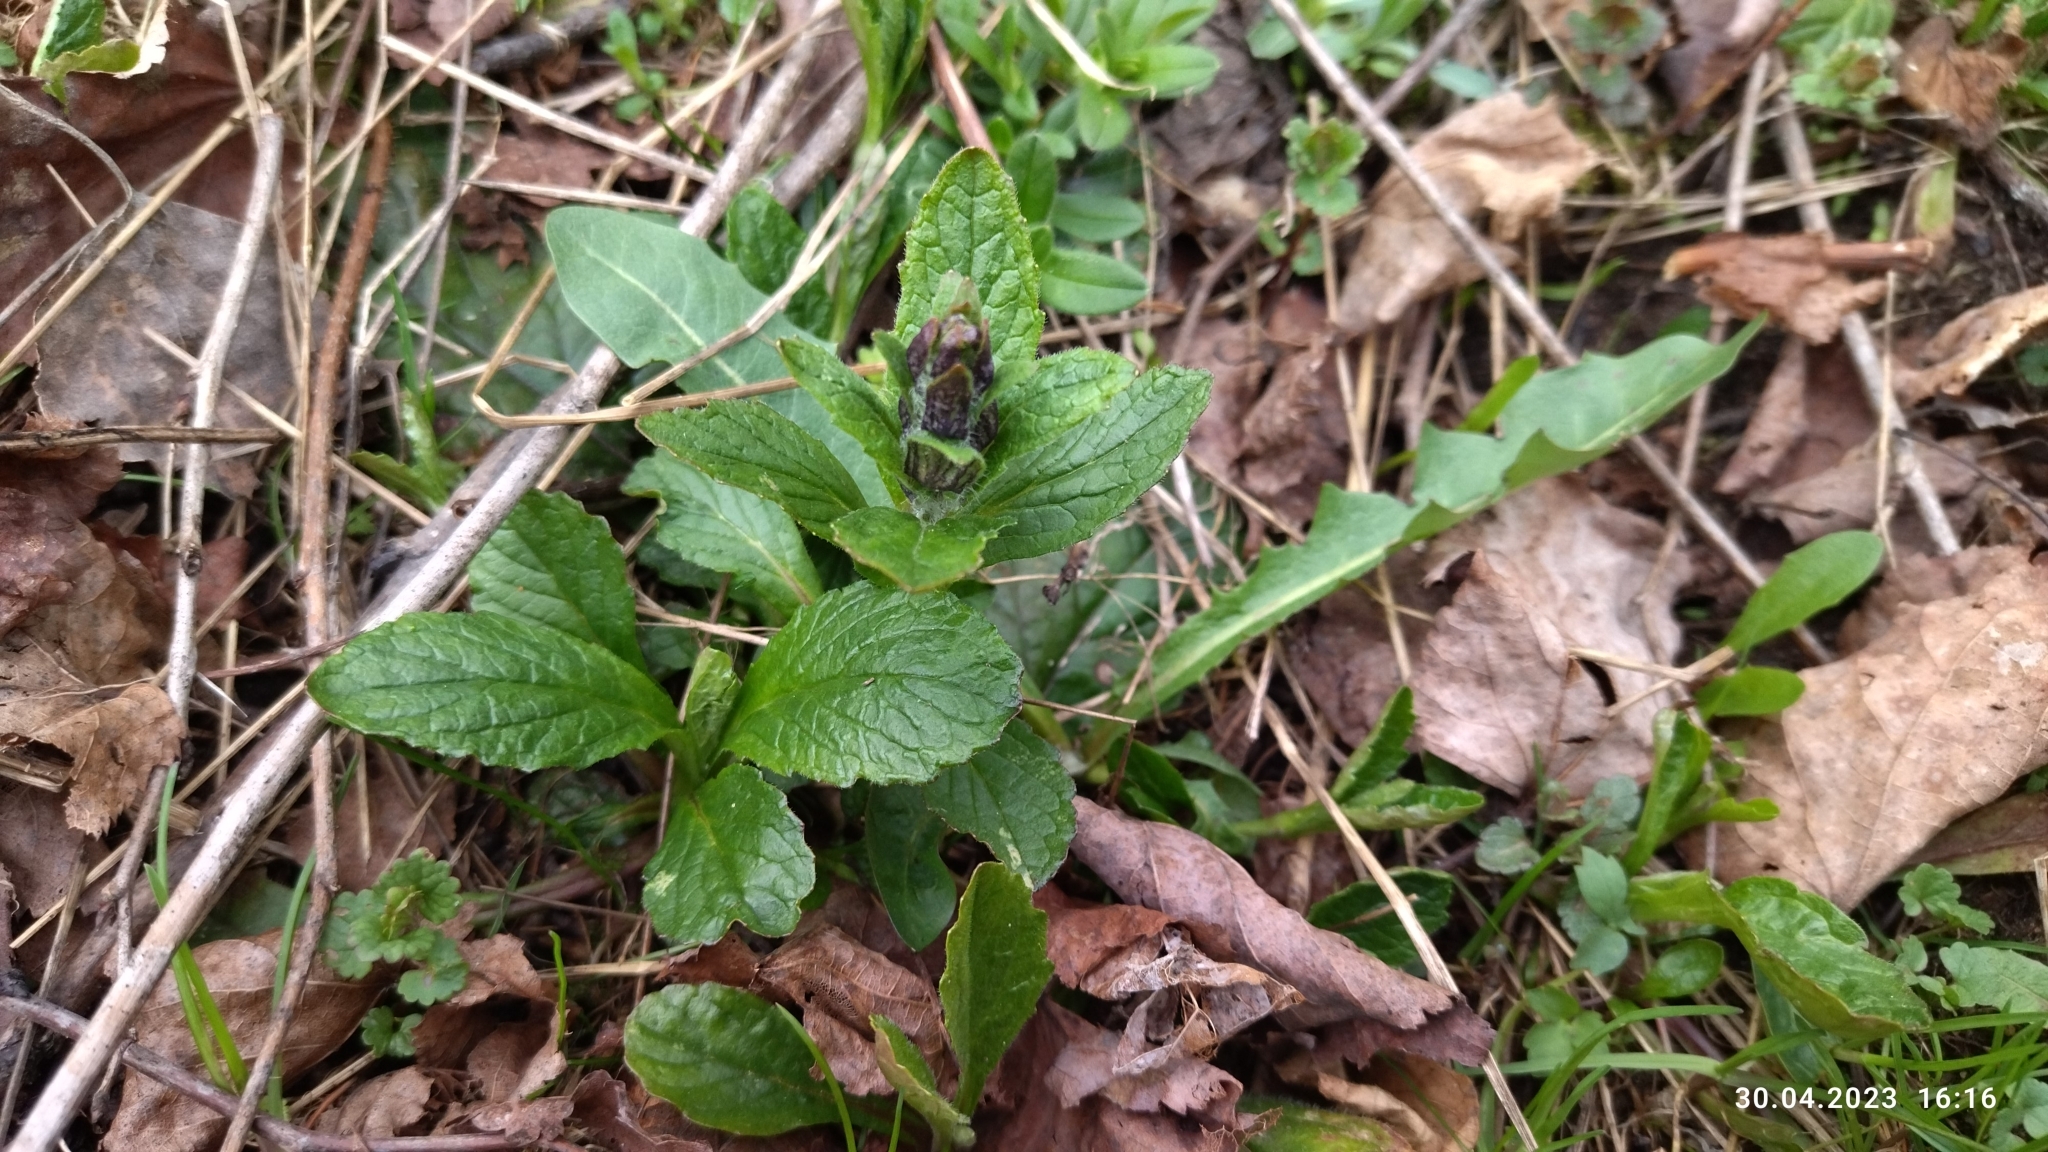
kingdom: Plantae
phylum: Tracheophyta
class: Magnoliopsida
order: Lamiales
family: Lamiaceae
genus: Ajuga
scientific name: Ajuga reptans
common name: Bugle
